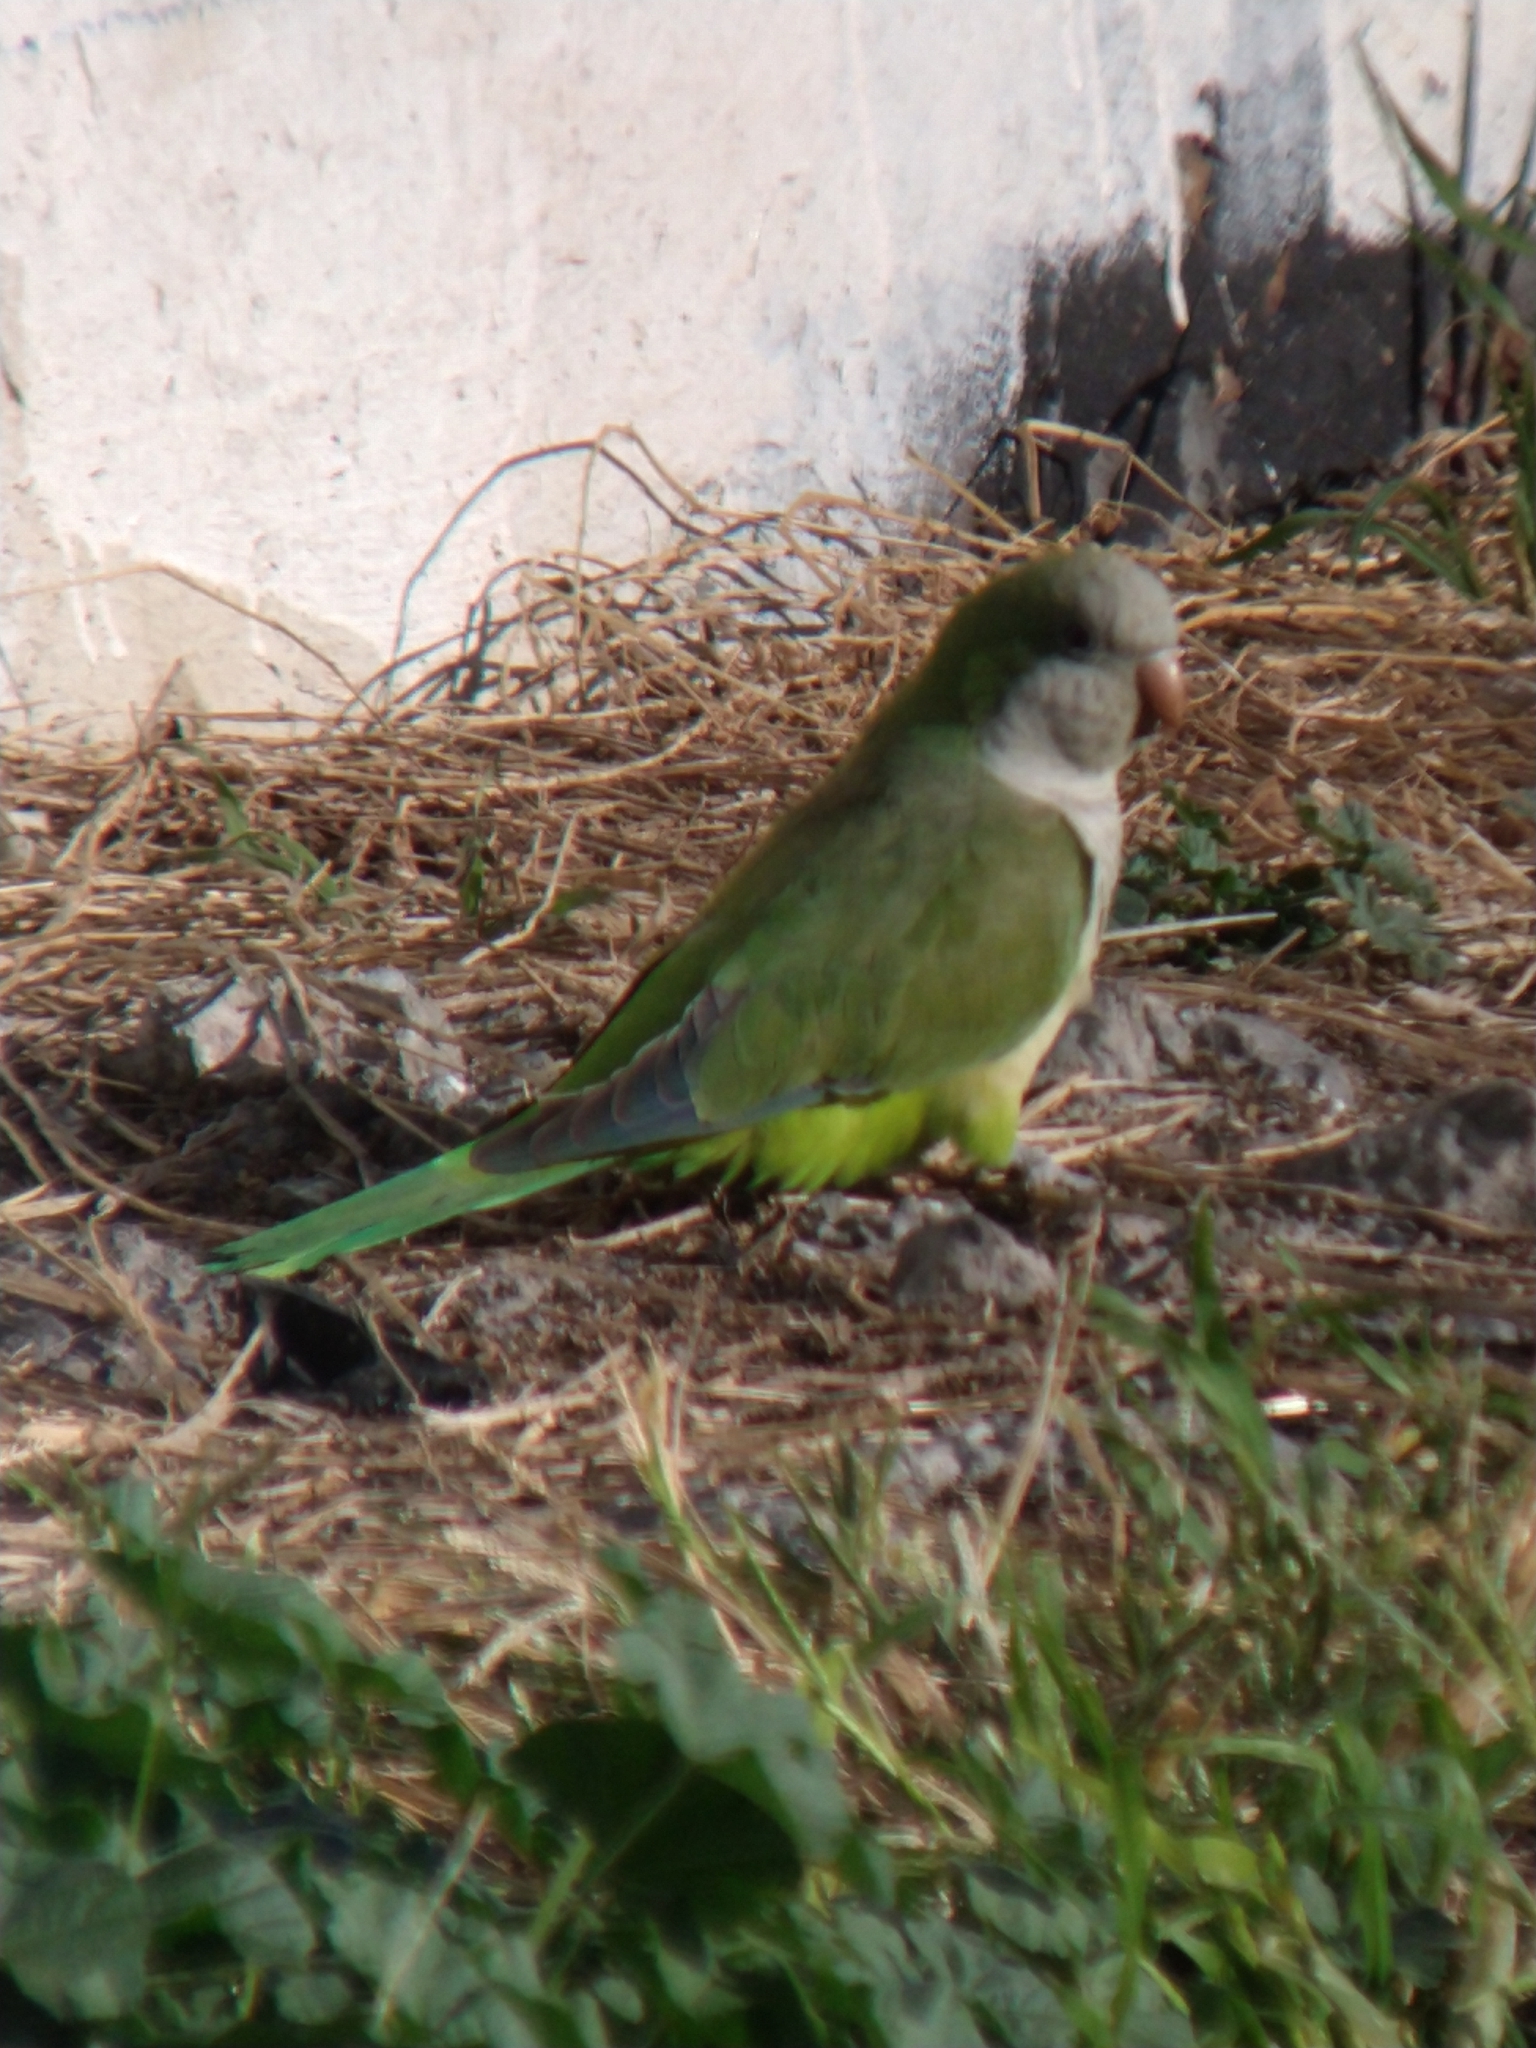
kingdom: Animalia
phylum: Chordata
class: Aves
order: Psittaciformes
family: Psittacidae
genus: Myiopsitta
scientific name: Myiopsitta monachus
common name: Monk parakeet
